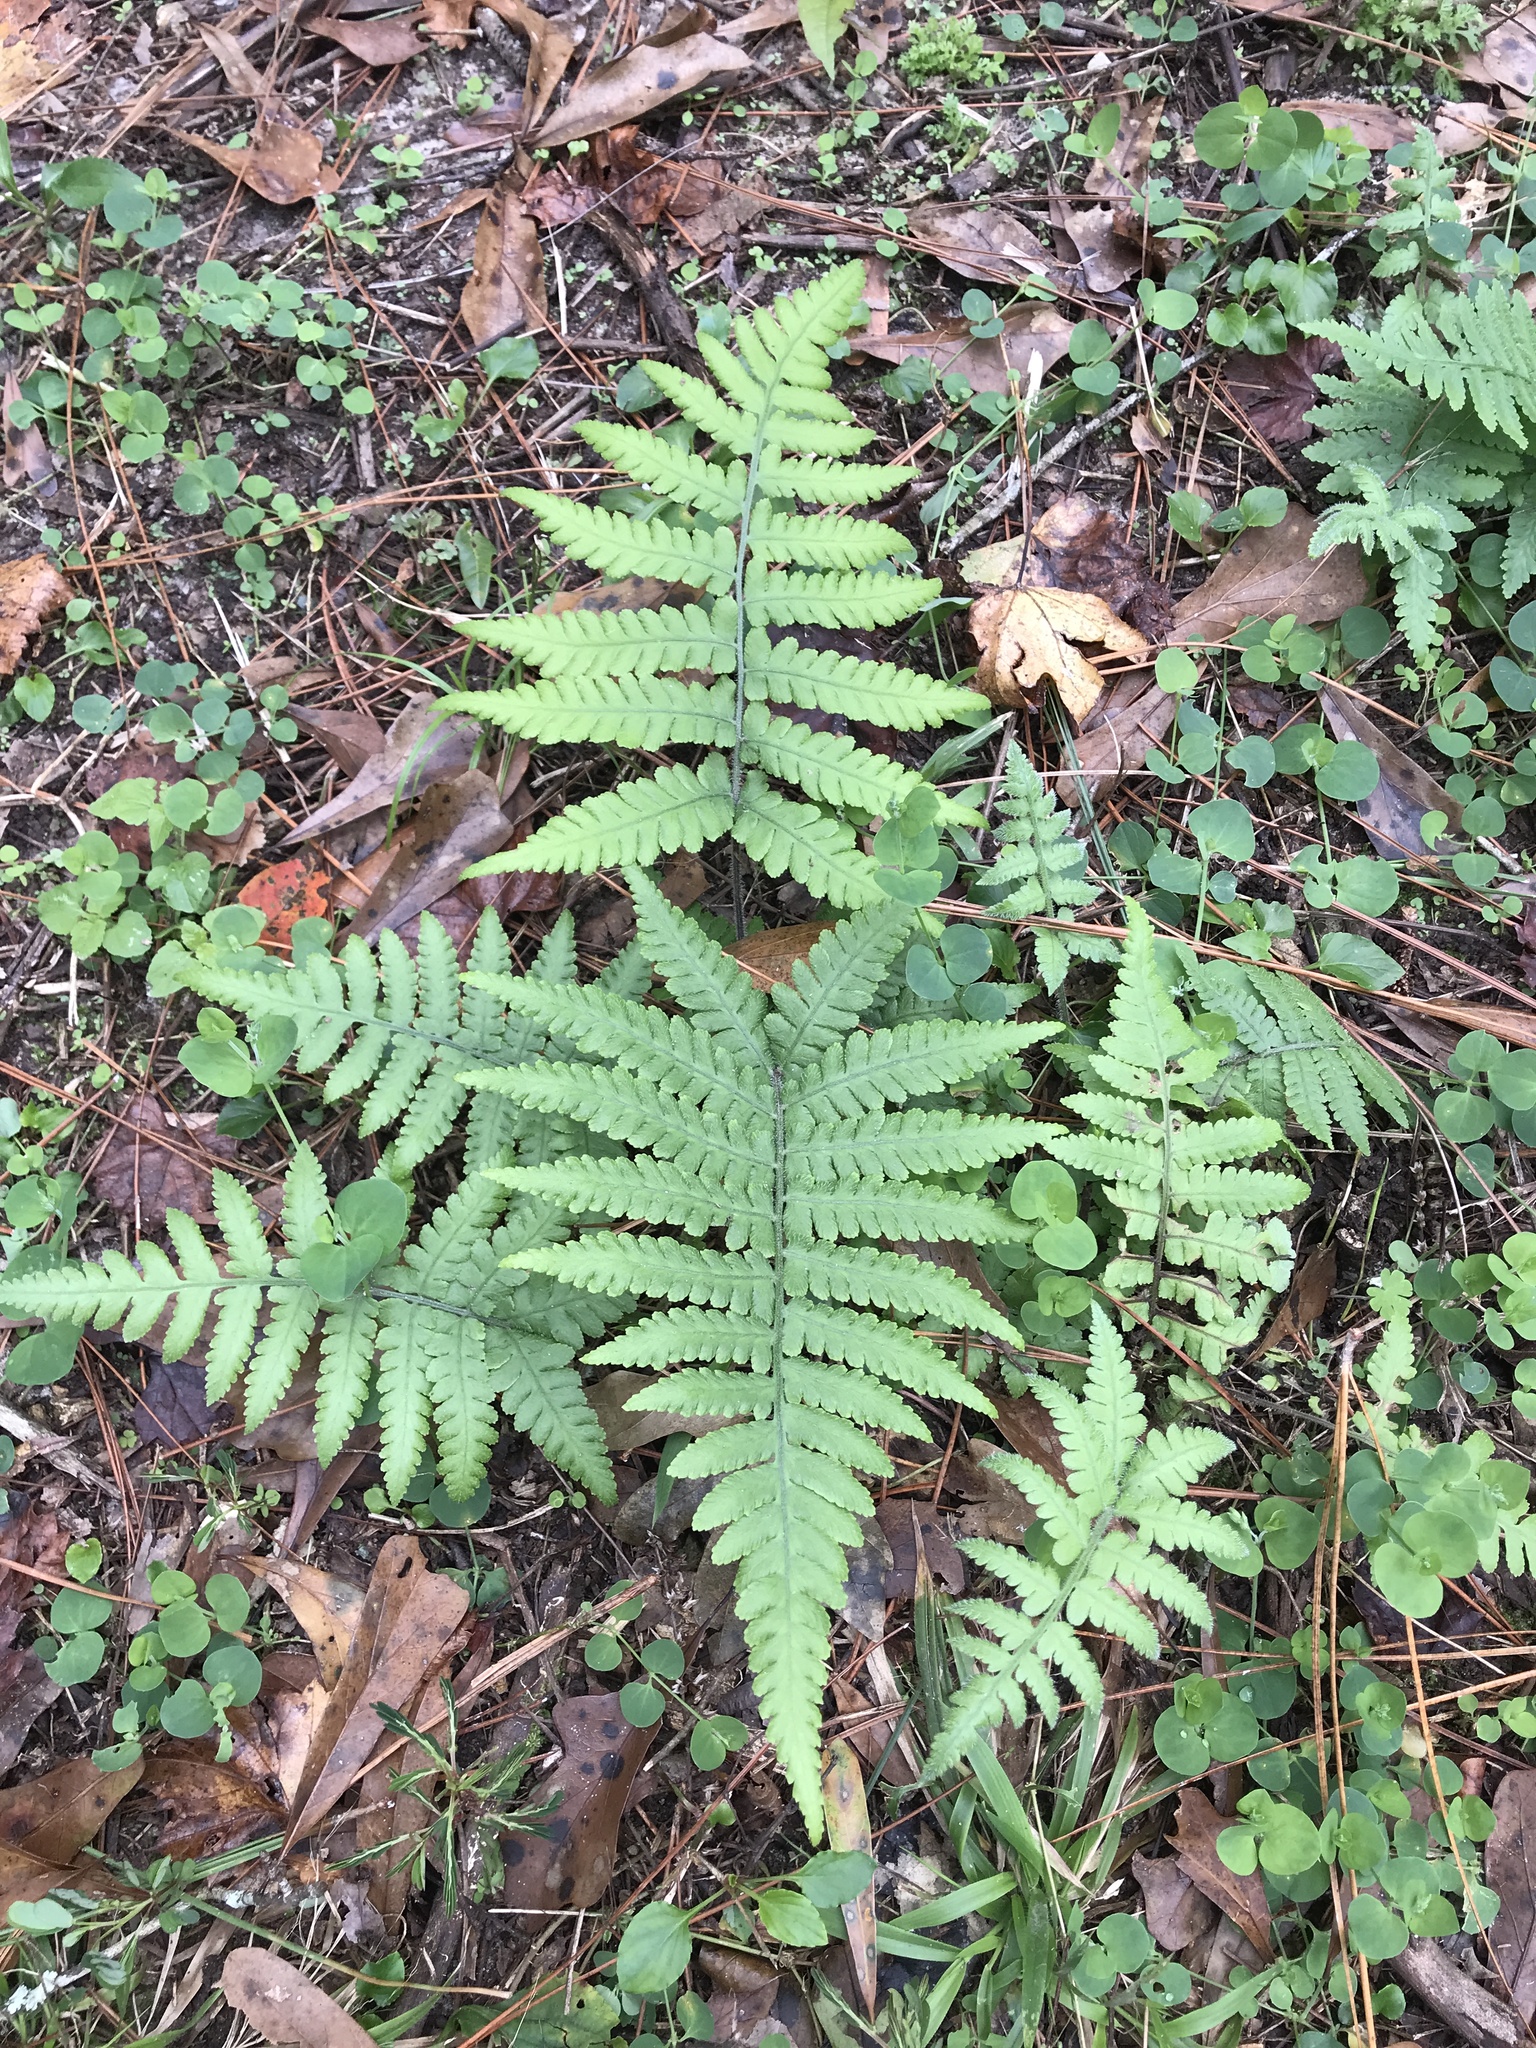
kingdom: Plantae
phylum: Tracheophyta
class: Polypodiopsida
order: Polypodiales
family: Athyriaceae
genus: Deparia
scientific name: Deparia petersenii
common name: Japanese false spleenwort
